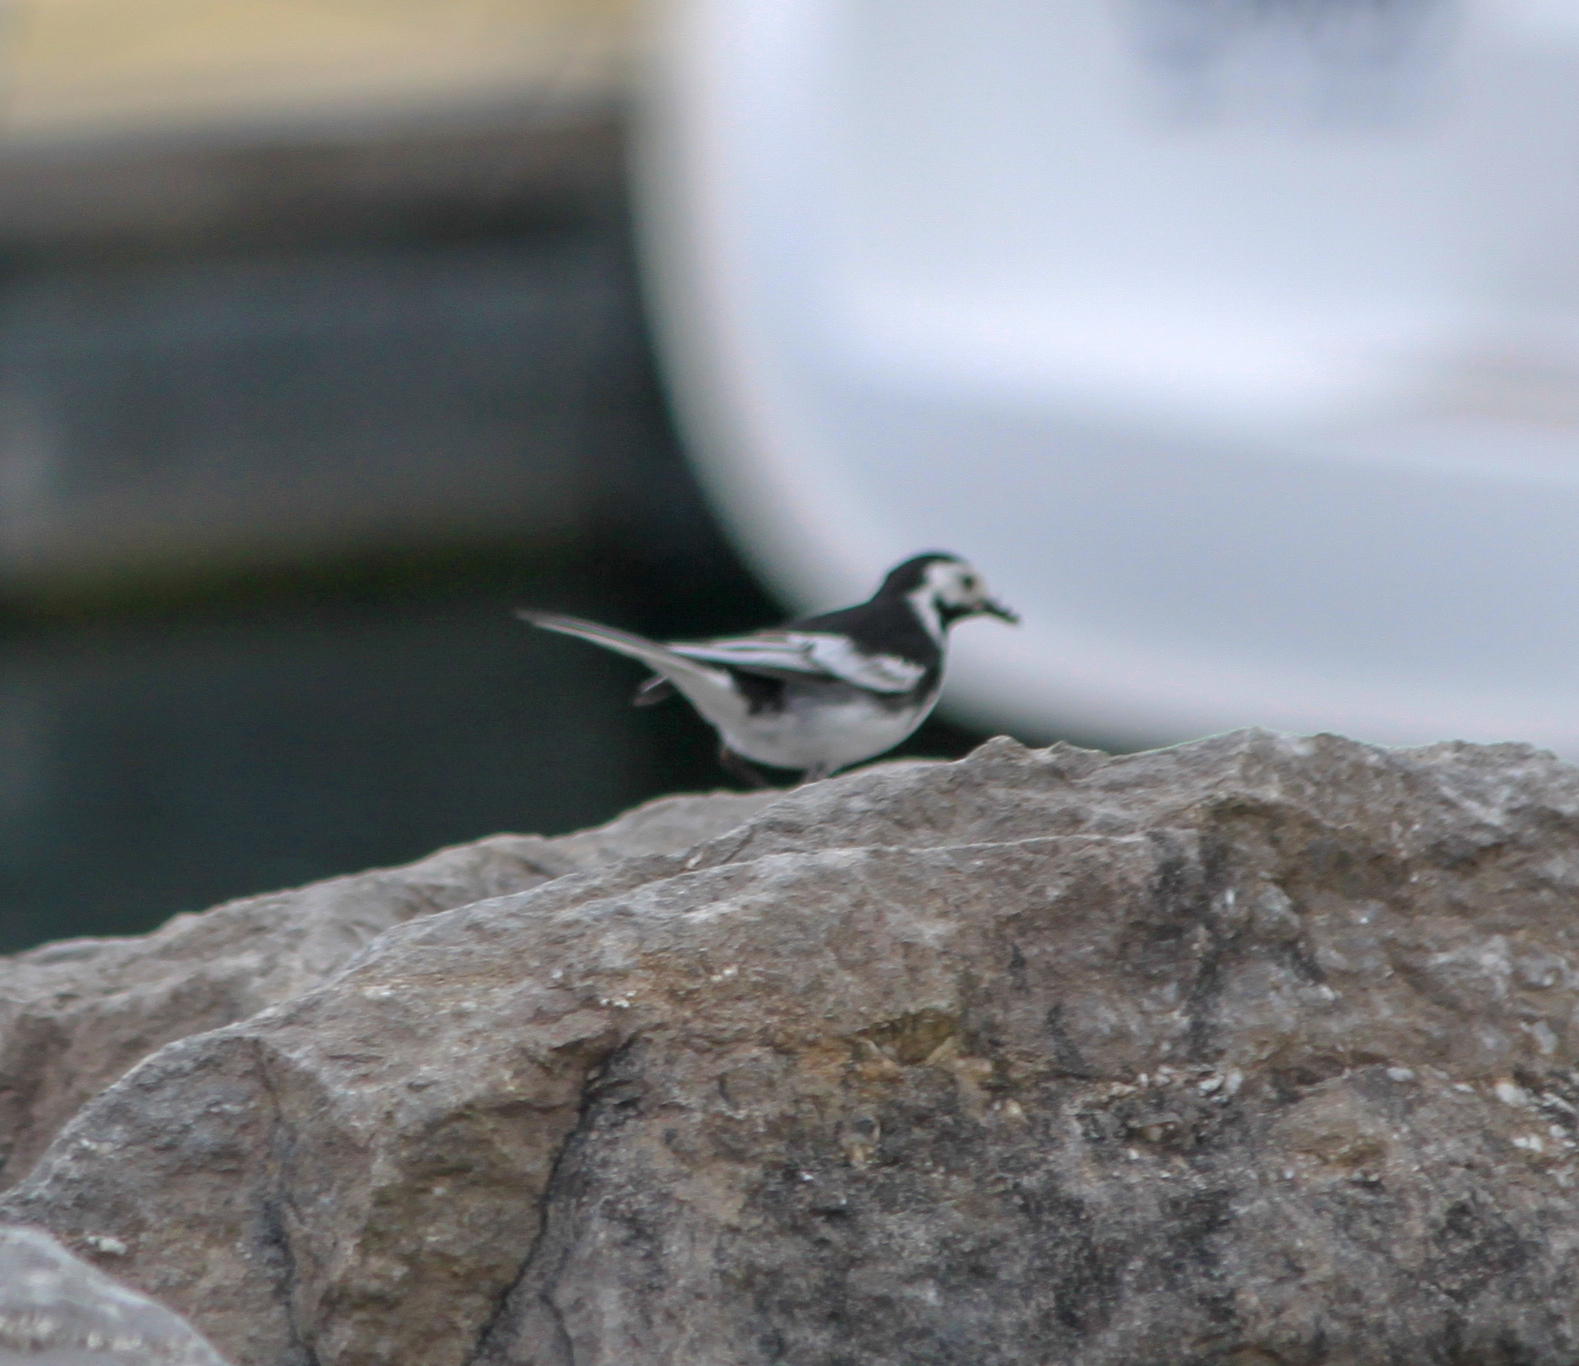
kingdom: Animalia
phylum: Chordata
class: Aves
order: Passeriformes
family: Motacillidae
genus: Motacilla
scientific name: Motacilla alba
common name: White wagtail
